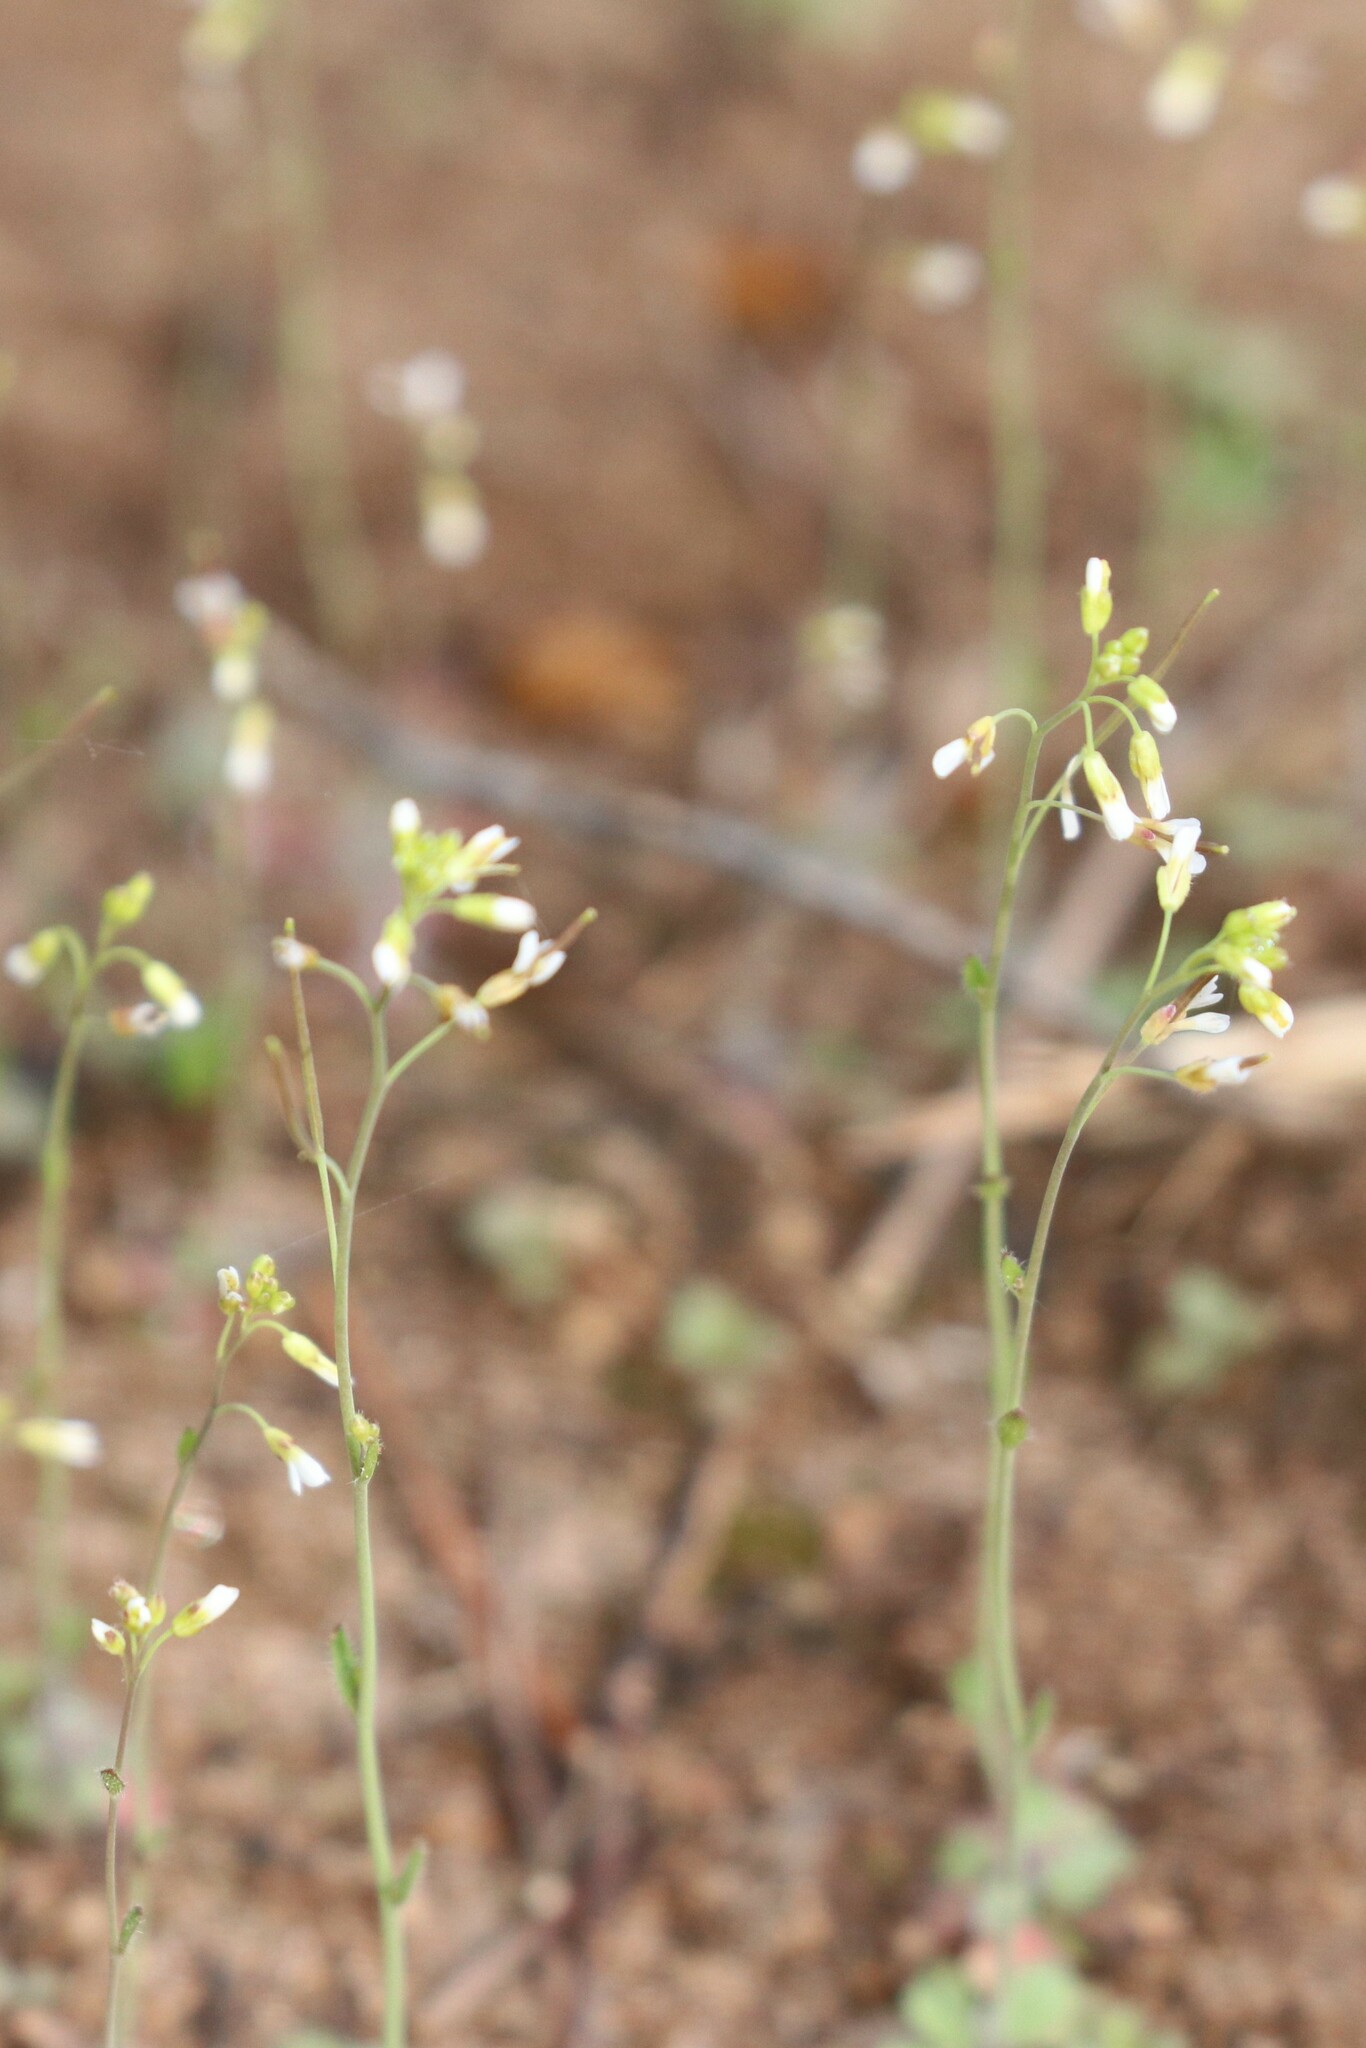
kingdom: Plantae
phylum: Tracheophyta
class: Magnoliopsida
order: Brassicales
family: Brassicaceae
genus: Arabidopsis
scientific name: Arabidopsis thaliana
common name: Thale cress
